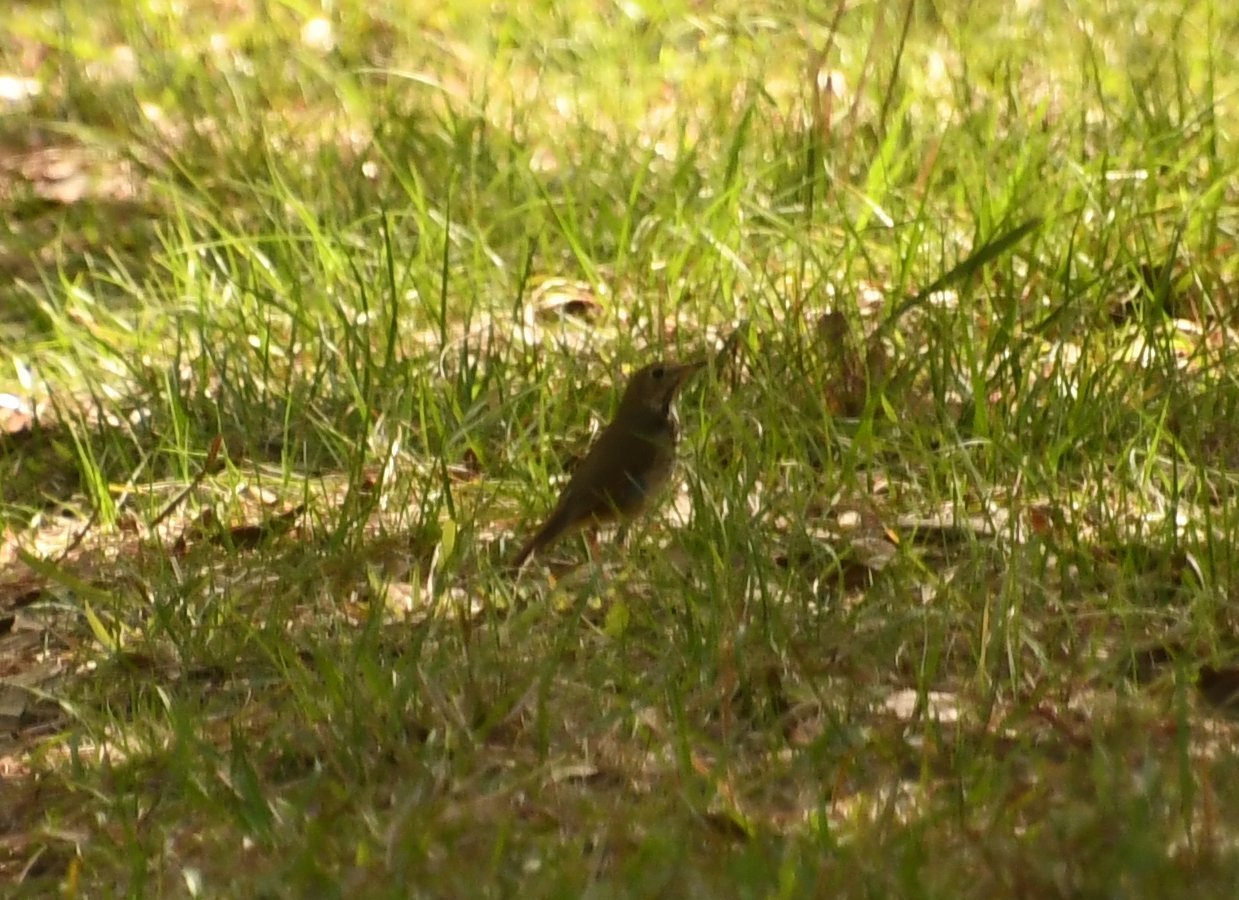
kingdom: Animalia
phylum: Chordata
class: Aves
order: Passeriformes
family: Turdidae
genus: Catharus
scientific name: Catharus guttatus
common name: Hermit thrush
